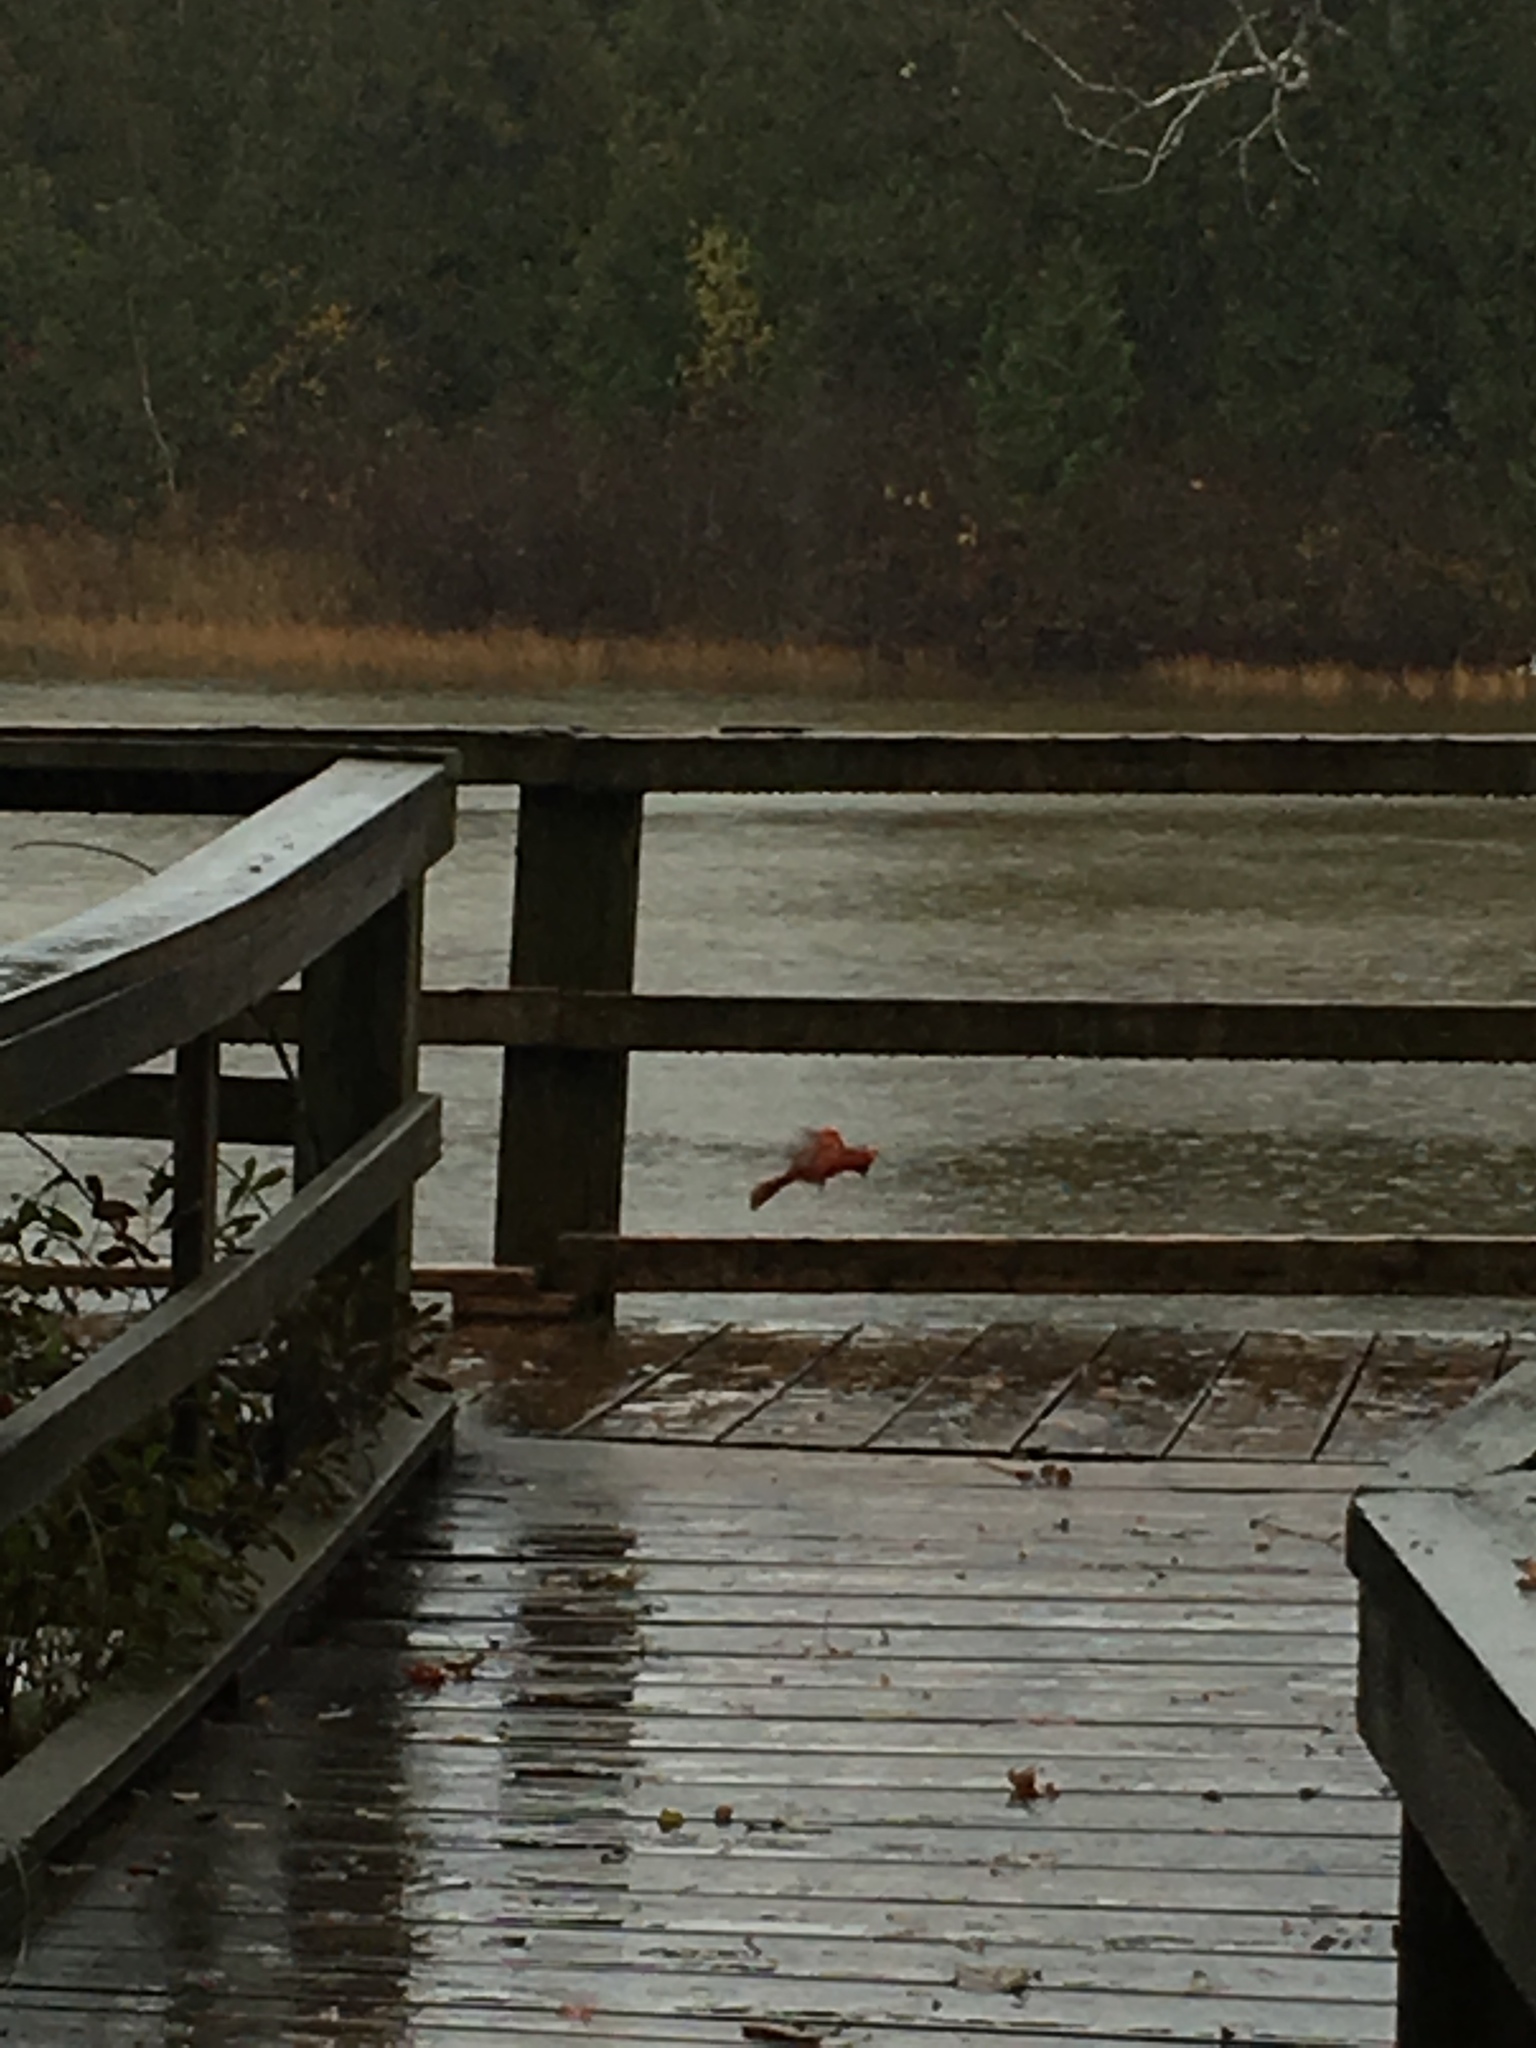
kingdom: Animalia
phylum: Chordata
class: Aves
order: Passeriformes
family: Cardinalidae
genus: Cardinalis
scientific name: Cardinalis cardinalis
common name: Northern cardinal
